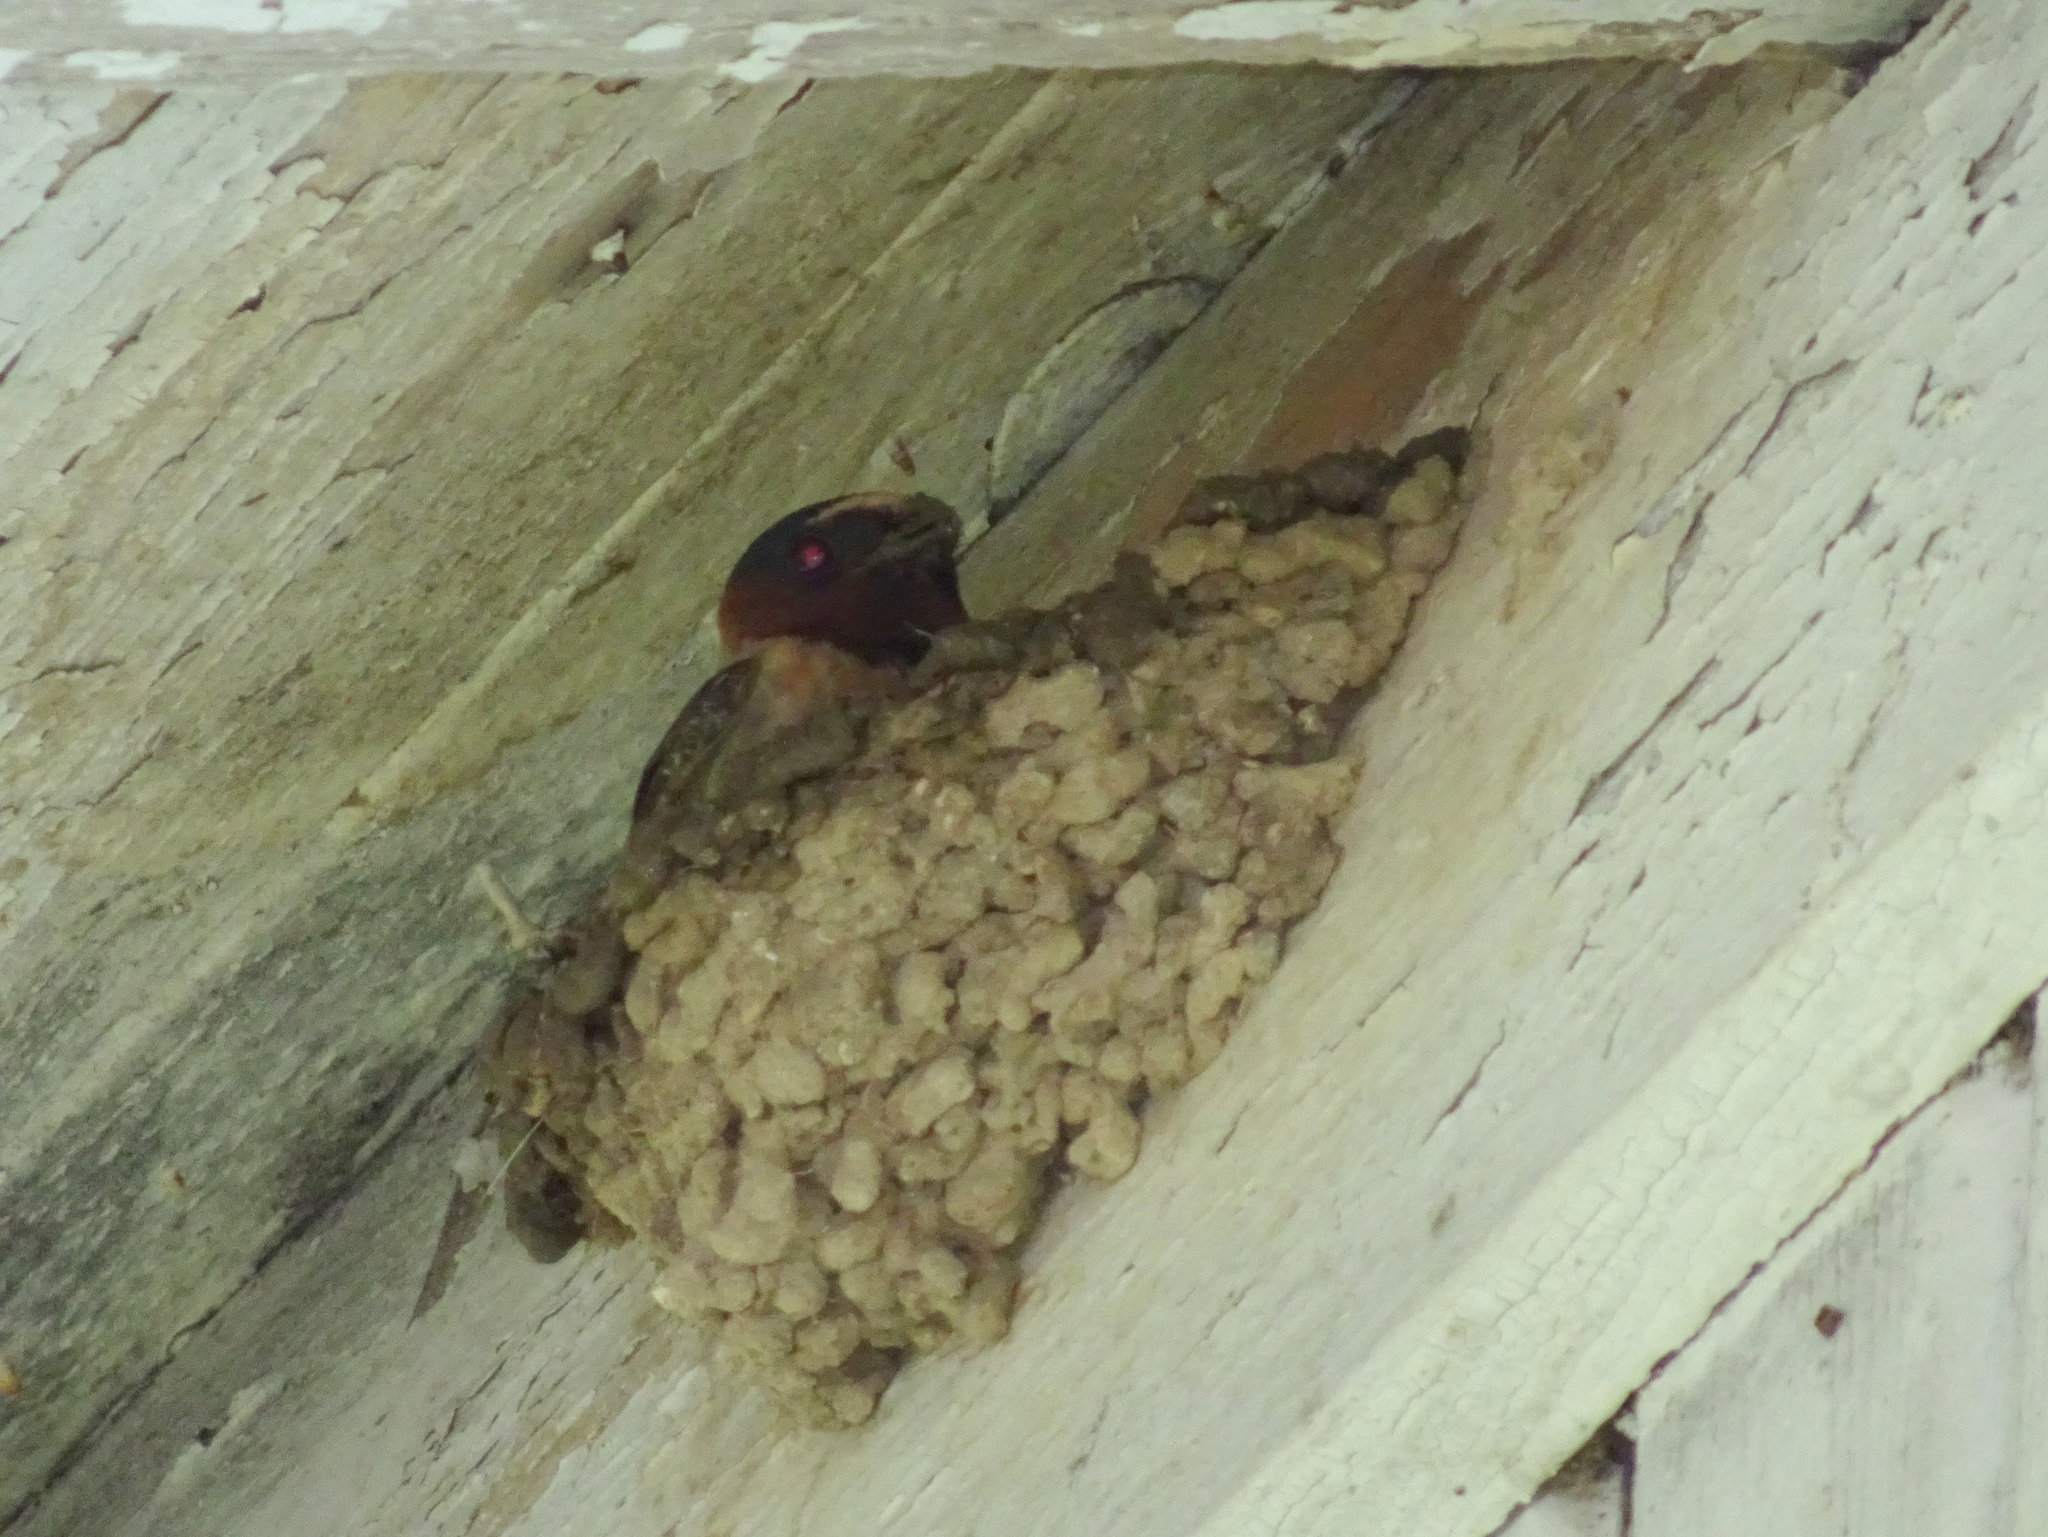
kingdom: Animalia
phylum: Chordata
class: Aves
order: Passeriformes
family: Hirundinidae
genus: Petrochelidon
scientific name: Petrochelidon pyrrhonota
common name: American cliff swallow
